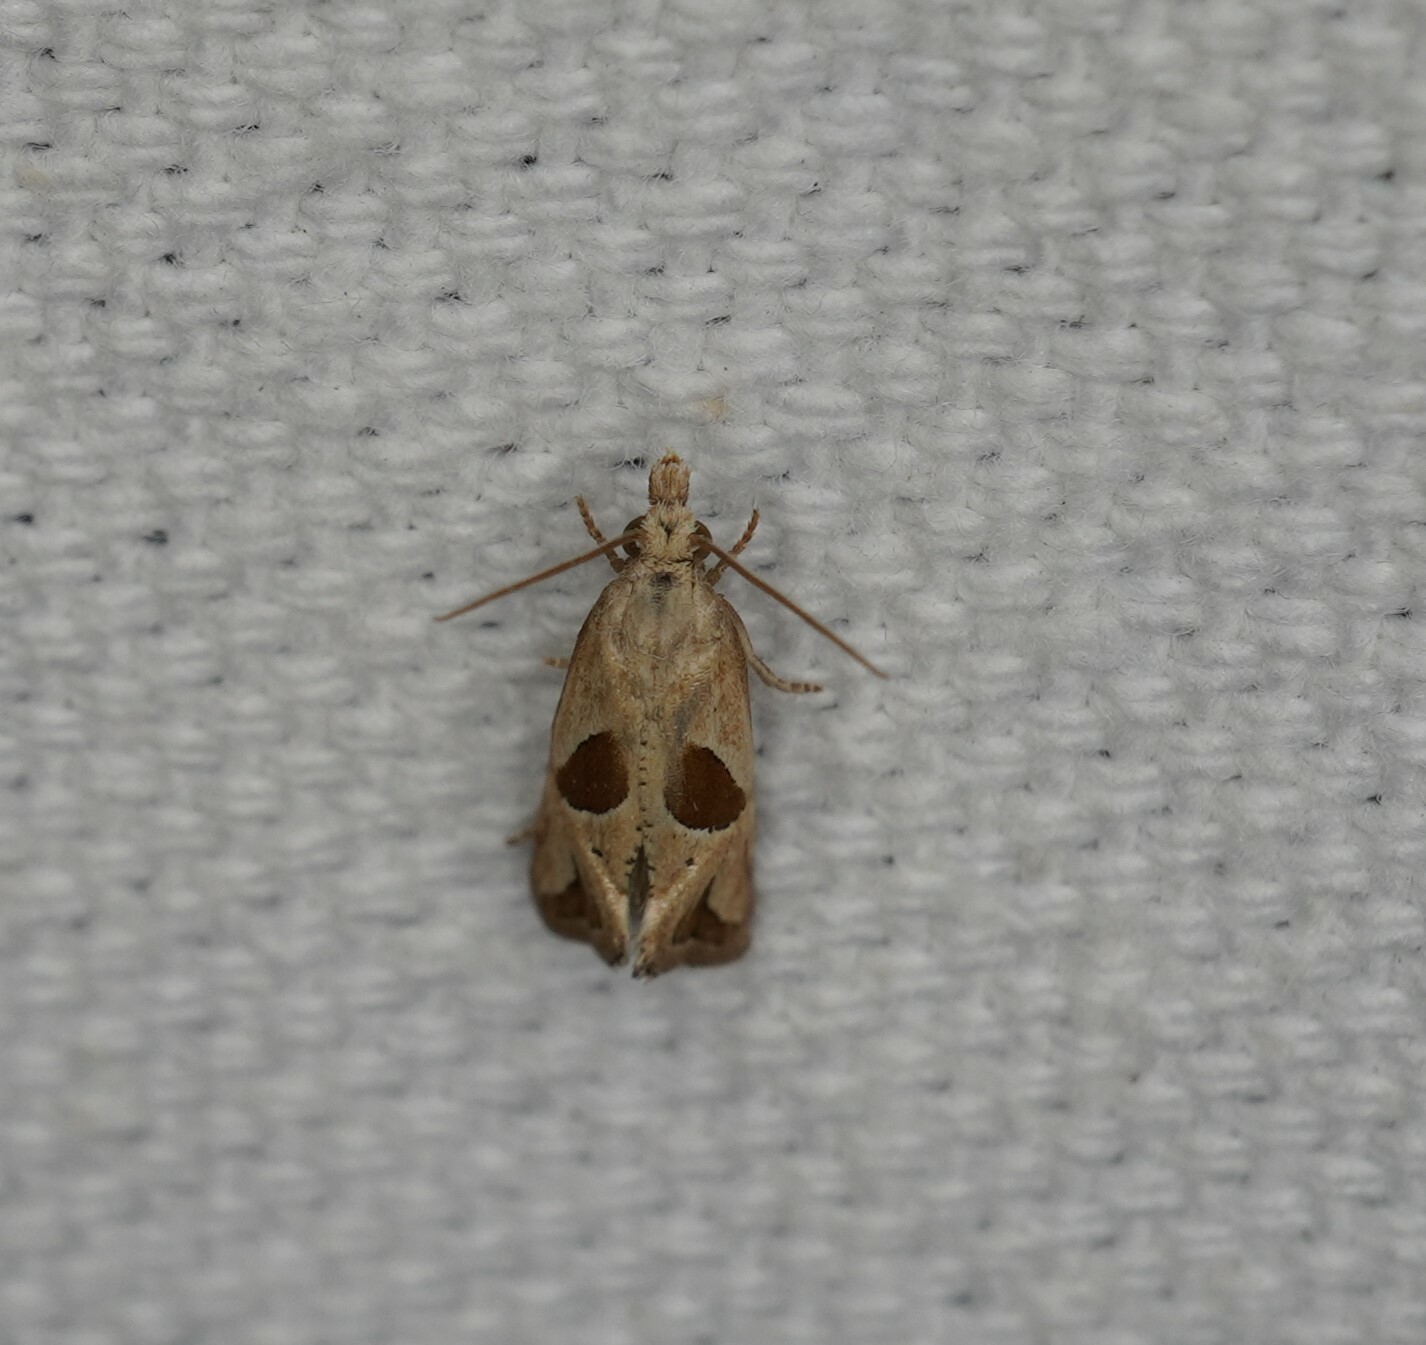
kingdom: Animalia
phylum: Arthropoda
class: Insecta
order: Lepidoptera
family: Tortricidae
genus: Eugnosta
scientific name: Eugnosta bimaculana
